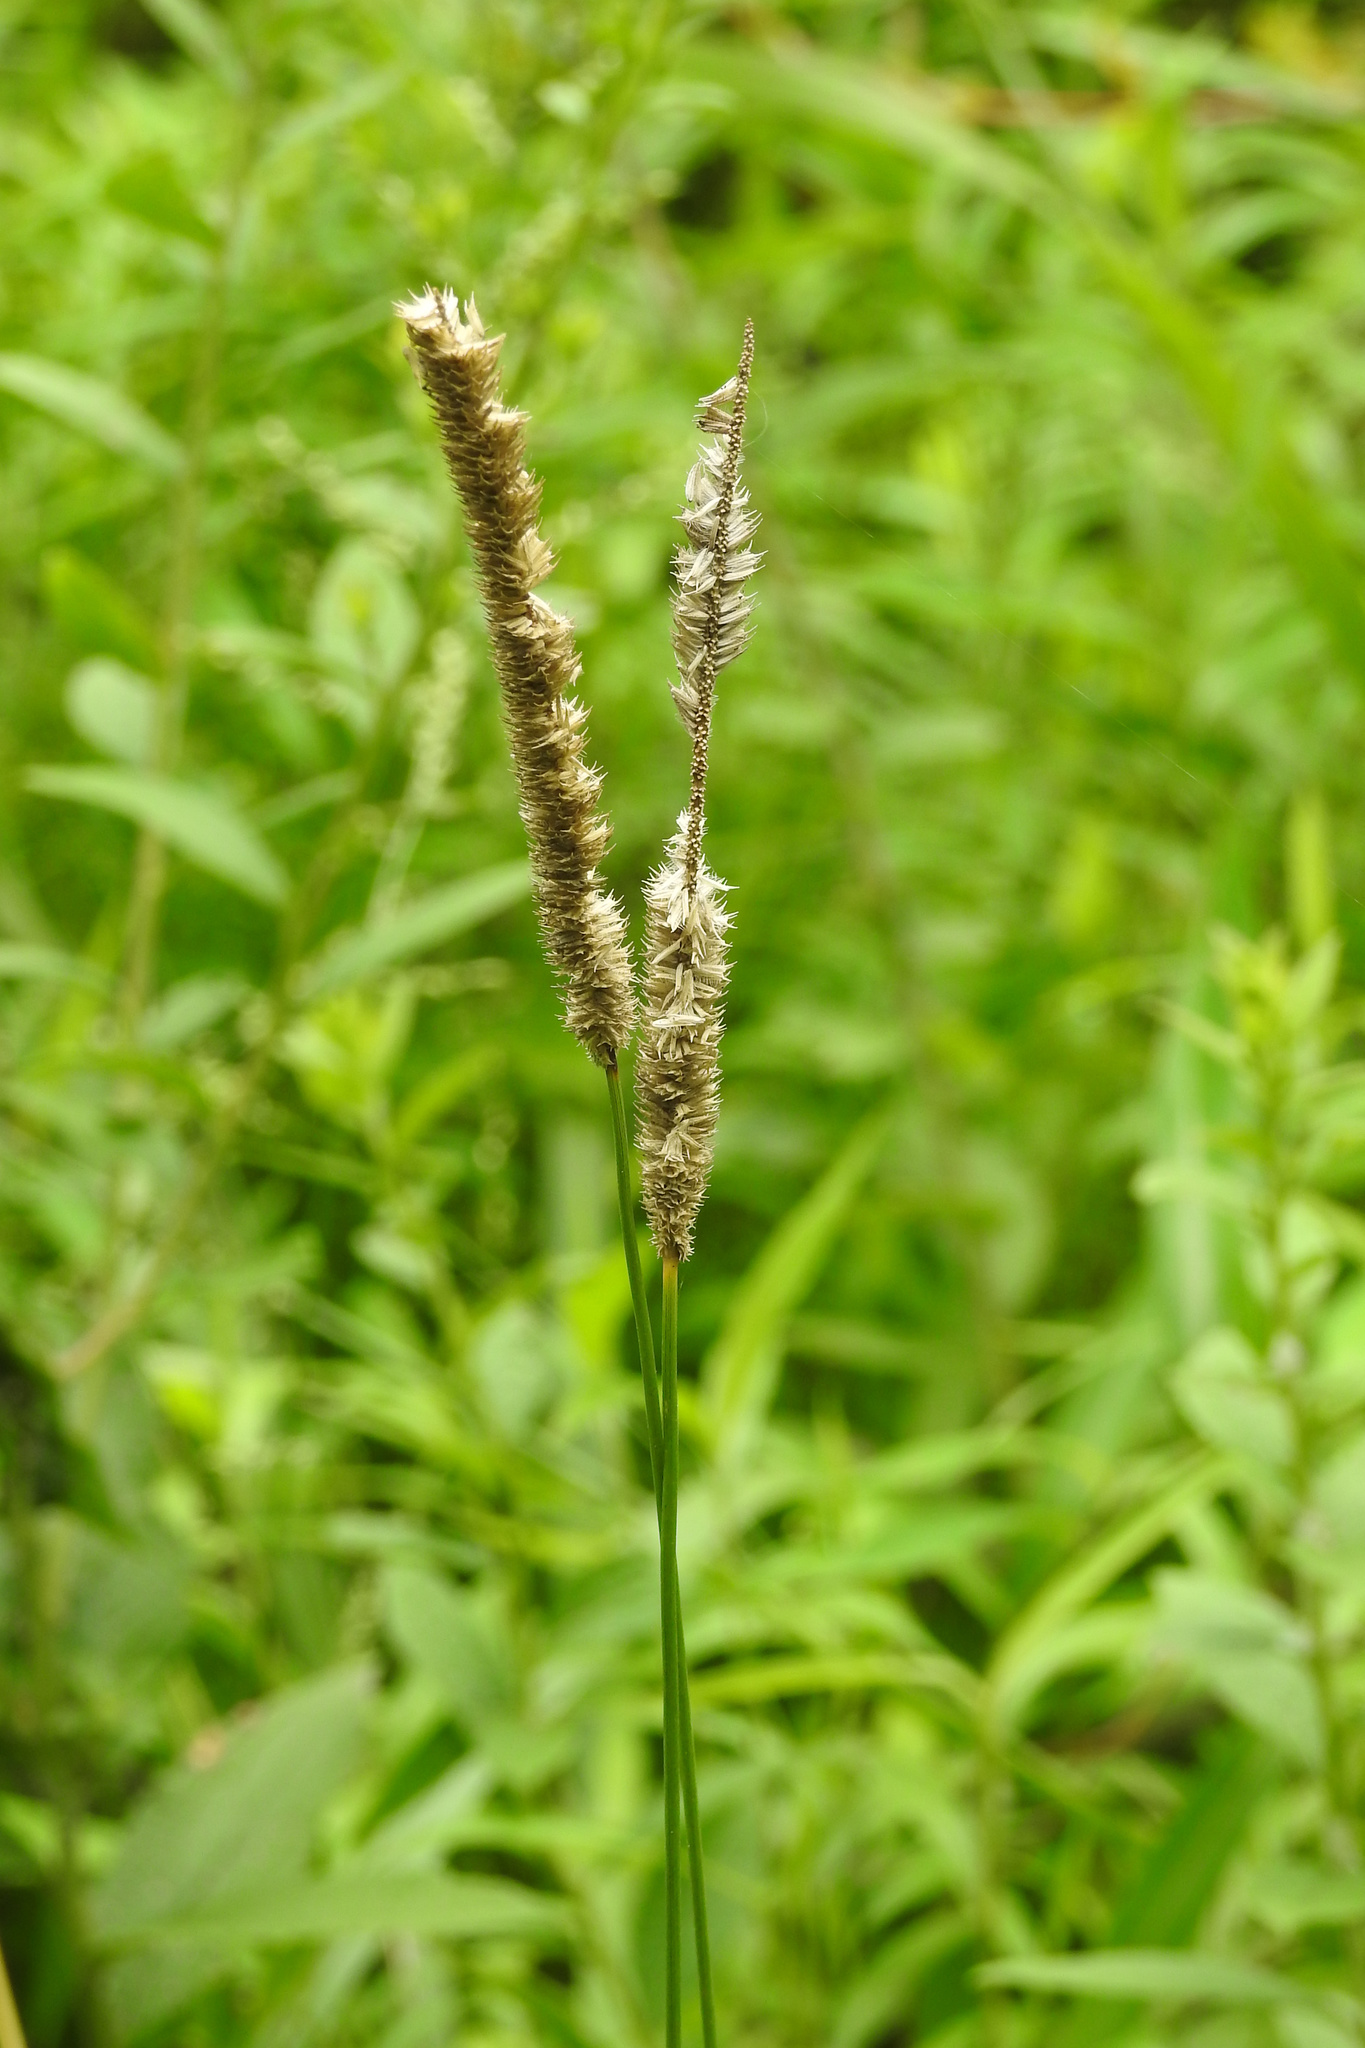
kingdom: Plantae
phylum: Tracheophyta
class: Liliopsida
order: Poales
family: Poaceae
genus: Phleum
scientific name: Phleum pratense
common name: Timothy grass
